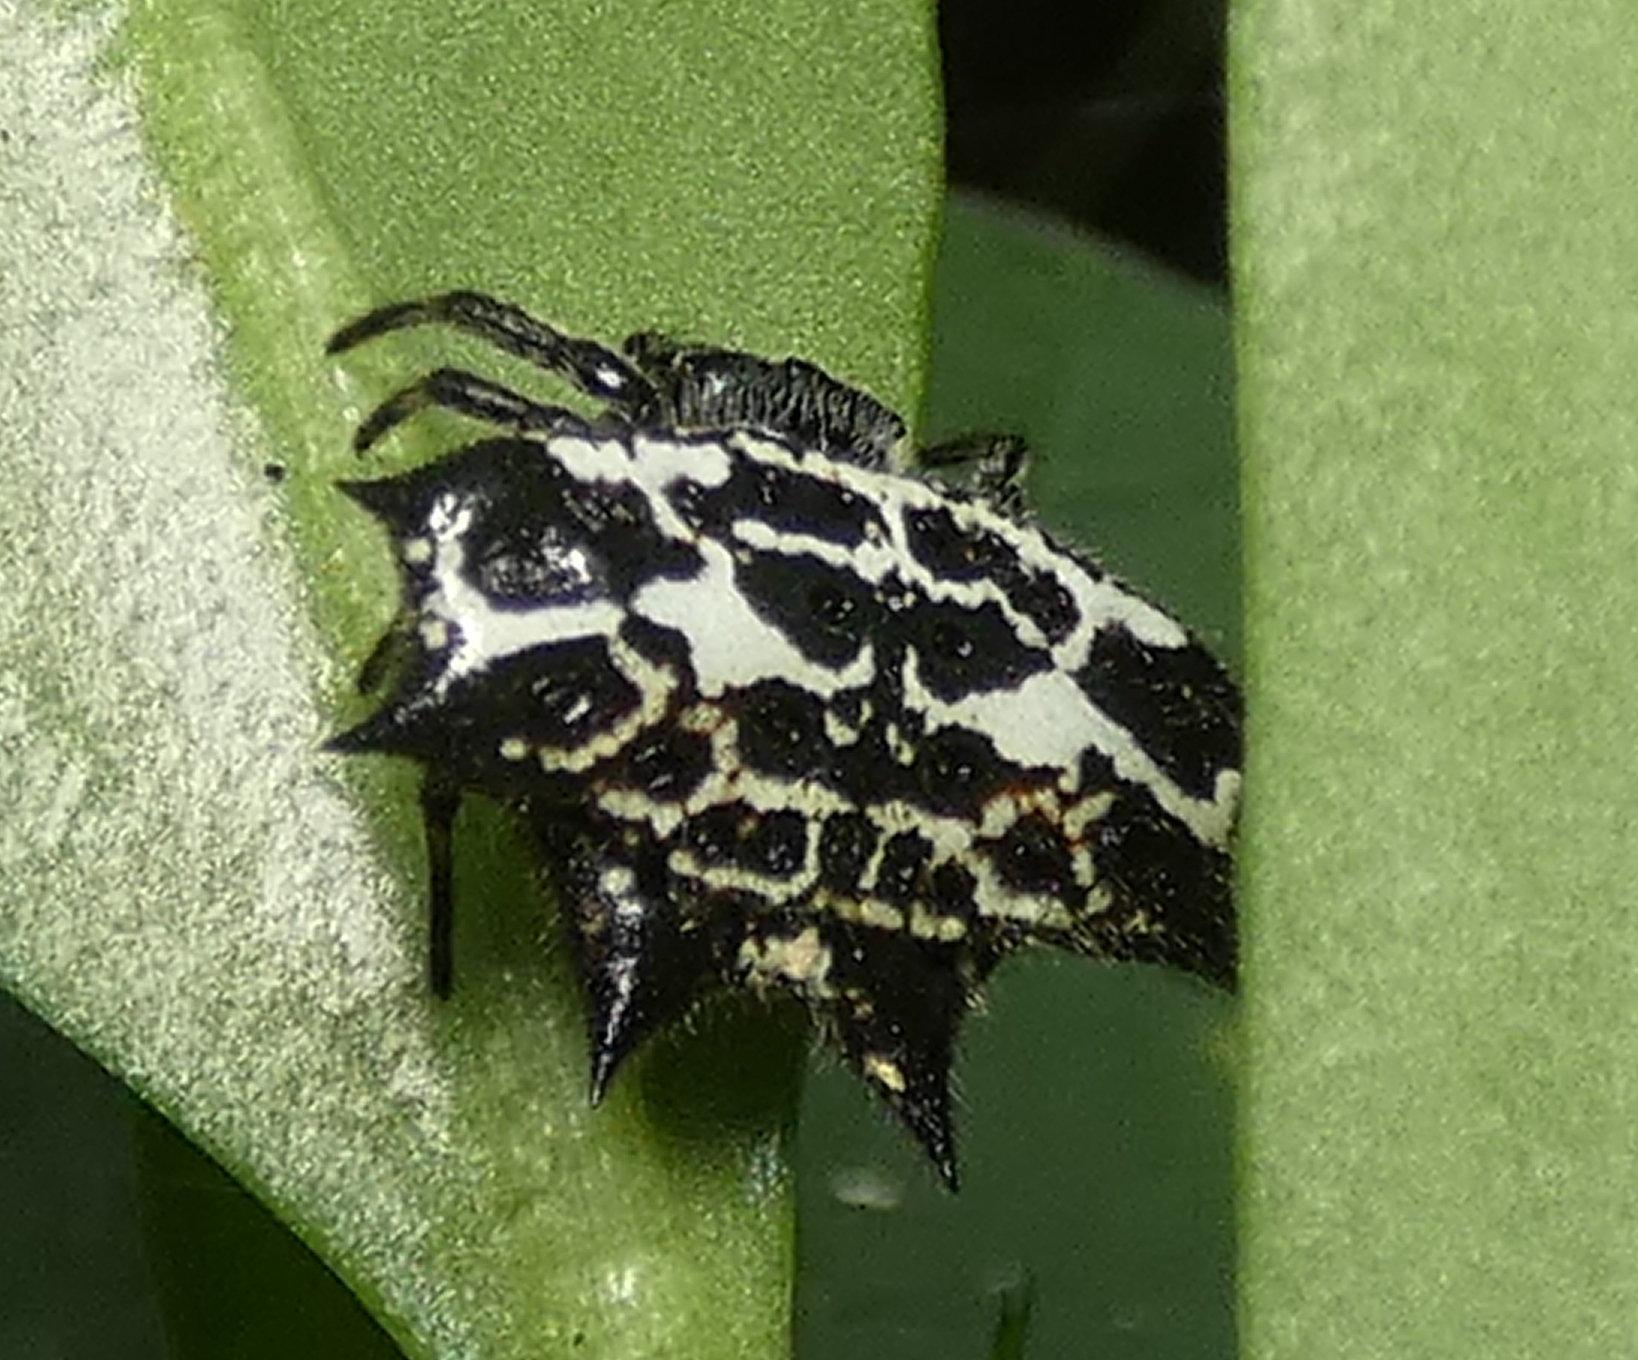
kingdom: Animalia
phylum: Arthropoda
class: Arachnida
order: Araneae
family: Araneidae
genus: Gasteracantha
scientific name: Gasteracantha cancriformis
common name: Orb weavers
